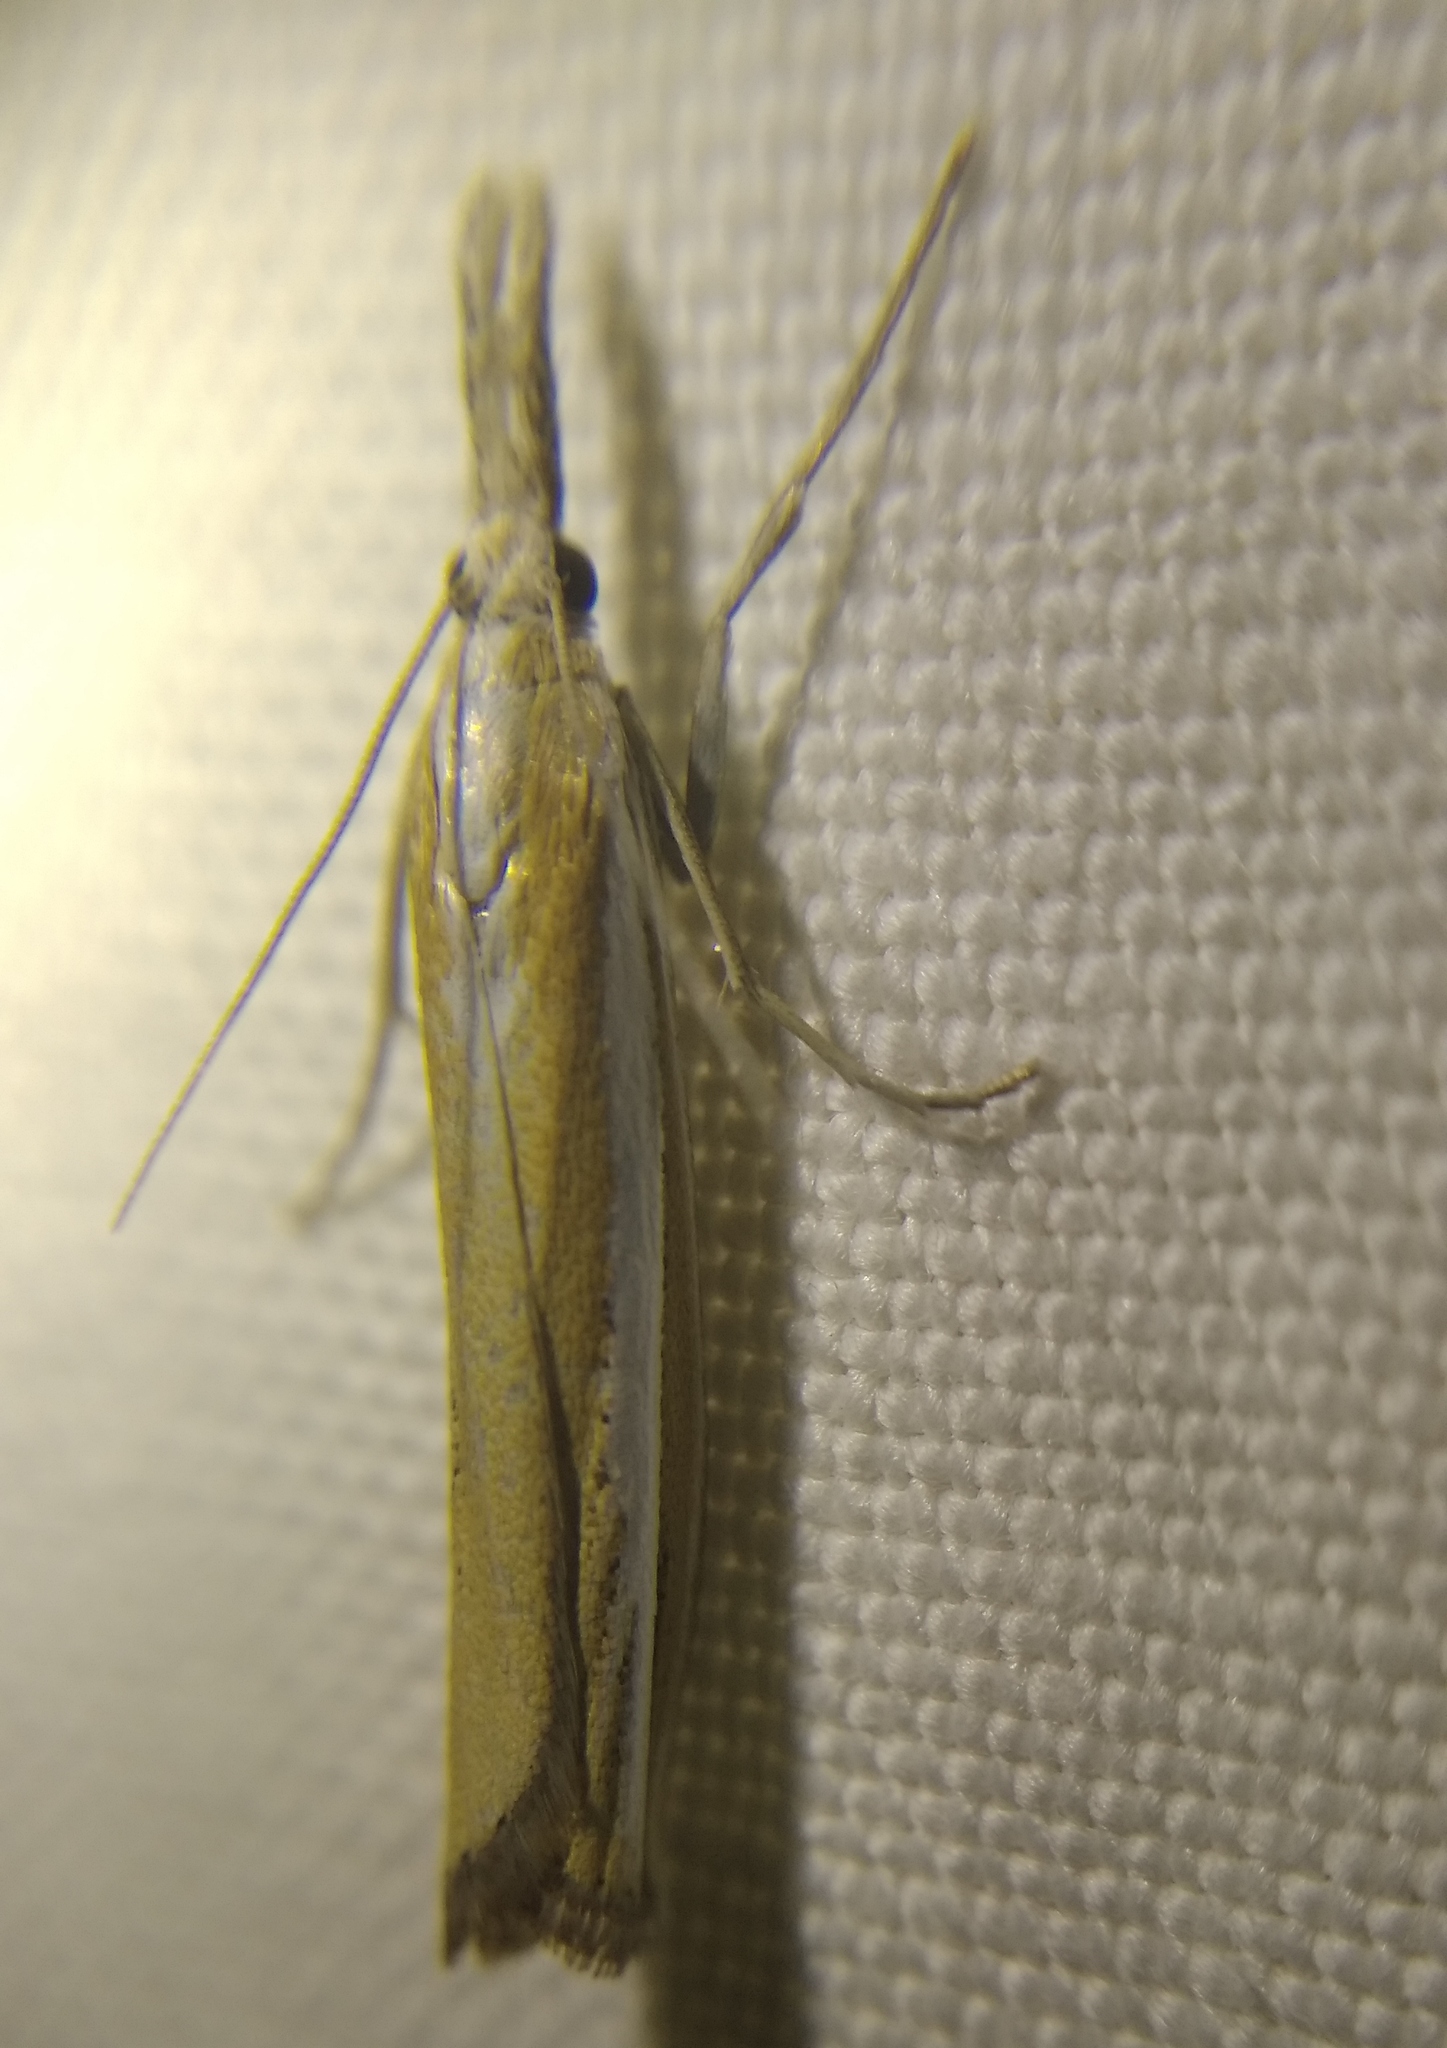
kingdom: Animalia
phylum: Arthropoda
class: Insecta
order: Lepidoptera
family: Crambidae
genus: Agriphila
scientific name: Agriphila tristellus
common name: Common grass-veneer
